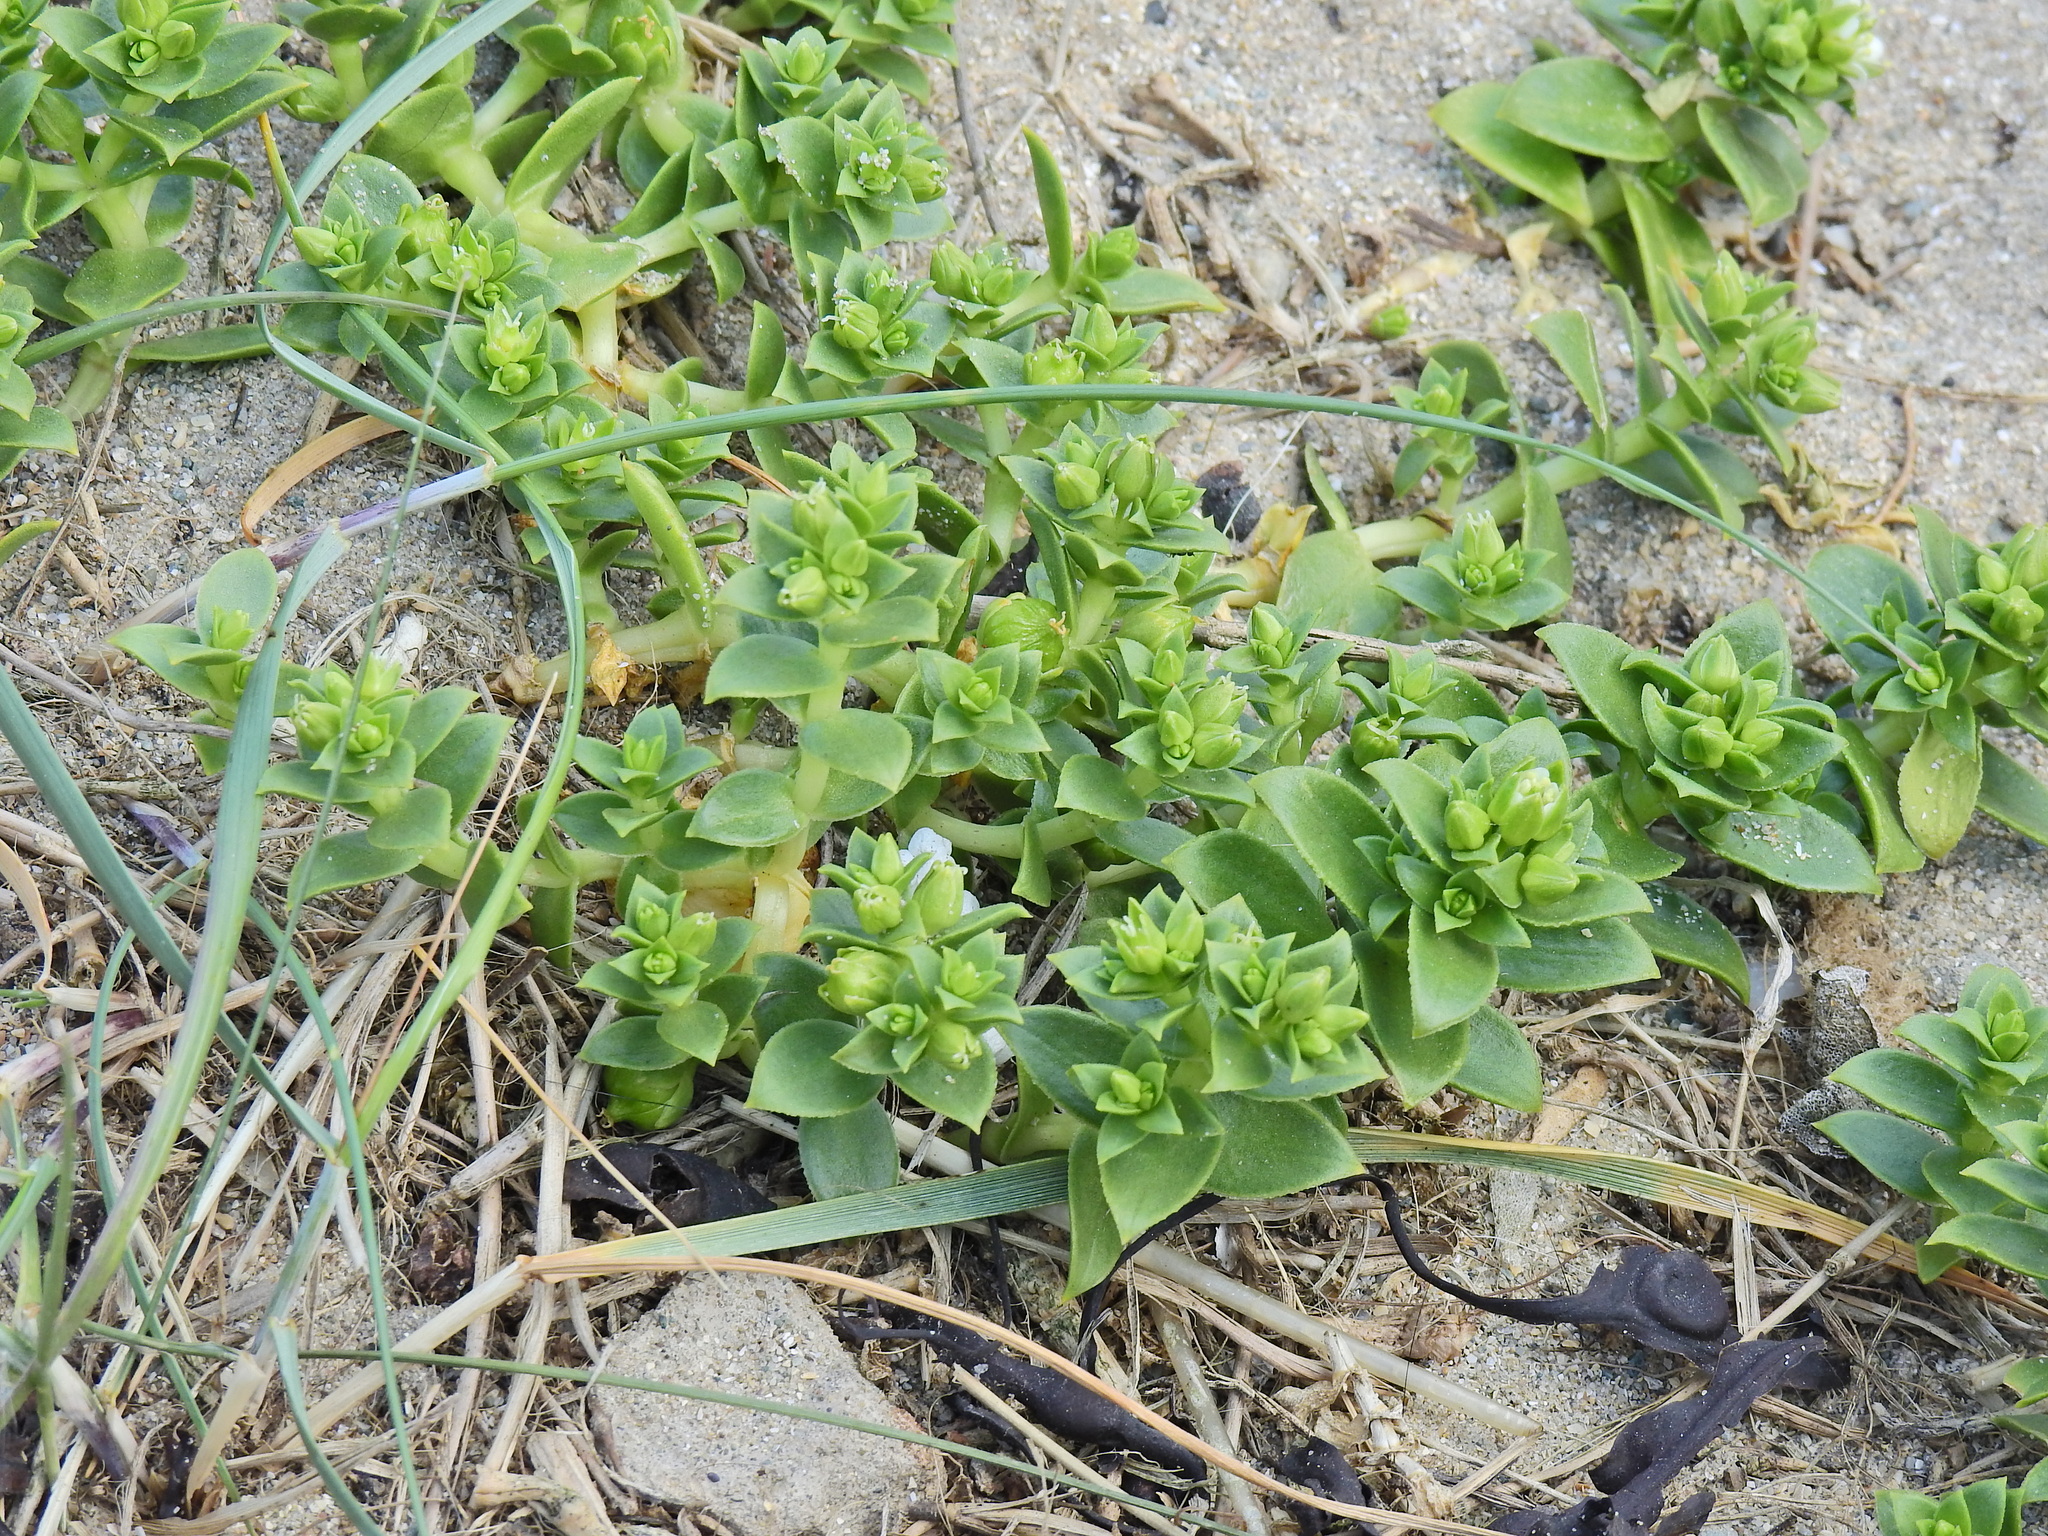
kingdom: Plantae
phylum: Tracheophyta
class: Magnoliopsida
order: Caryophyllales
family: Caryophyllaceae
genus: Honckenya
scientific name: Honckenya peploides
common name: Sea sandwort
